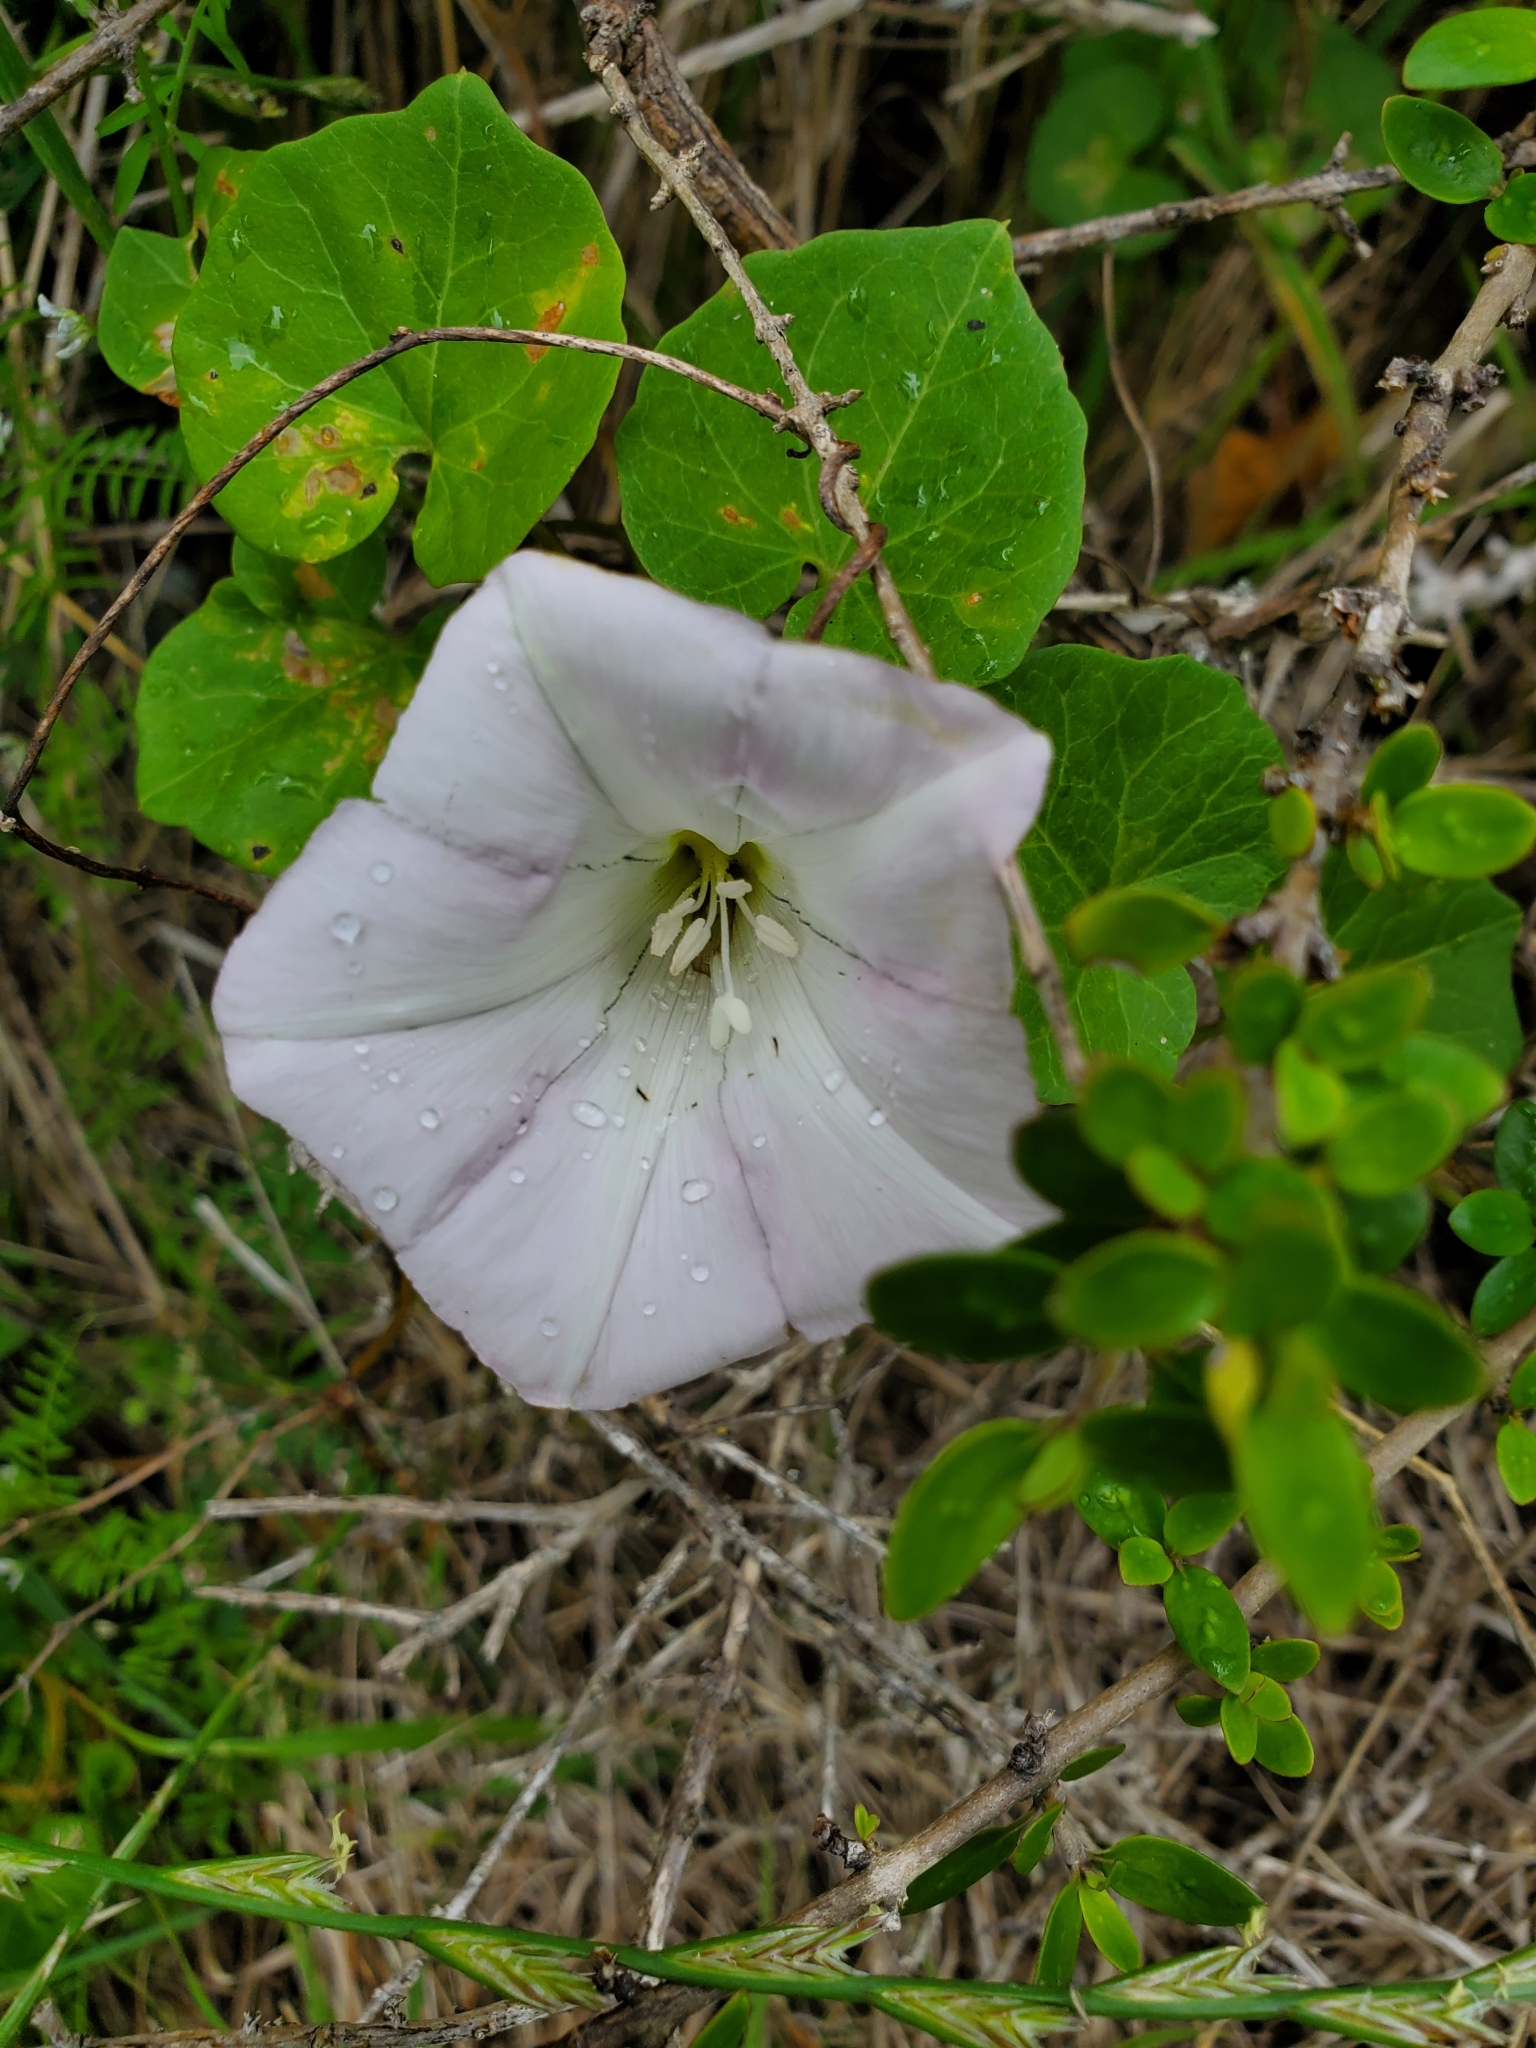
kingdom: Plantae
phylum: Tracheophyta
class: Magnoliopsida
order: Solanales
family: Convolvulaceae
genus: Calystegia
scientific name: Calystegia soldanella
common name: Sea bindweed
